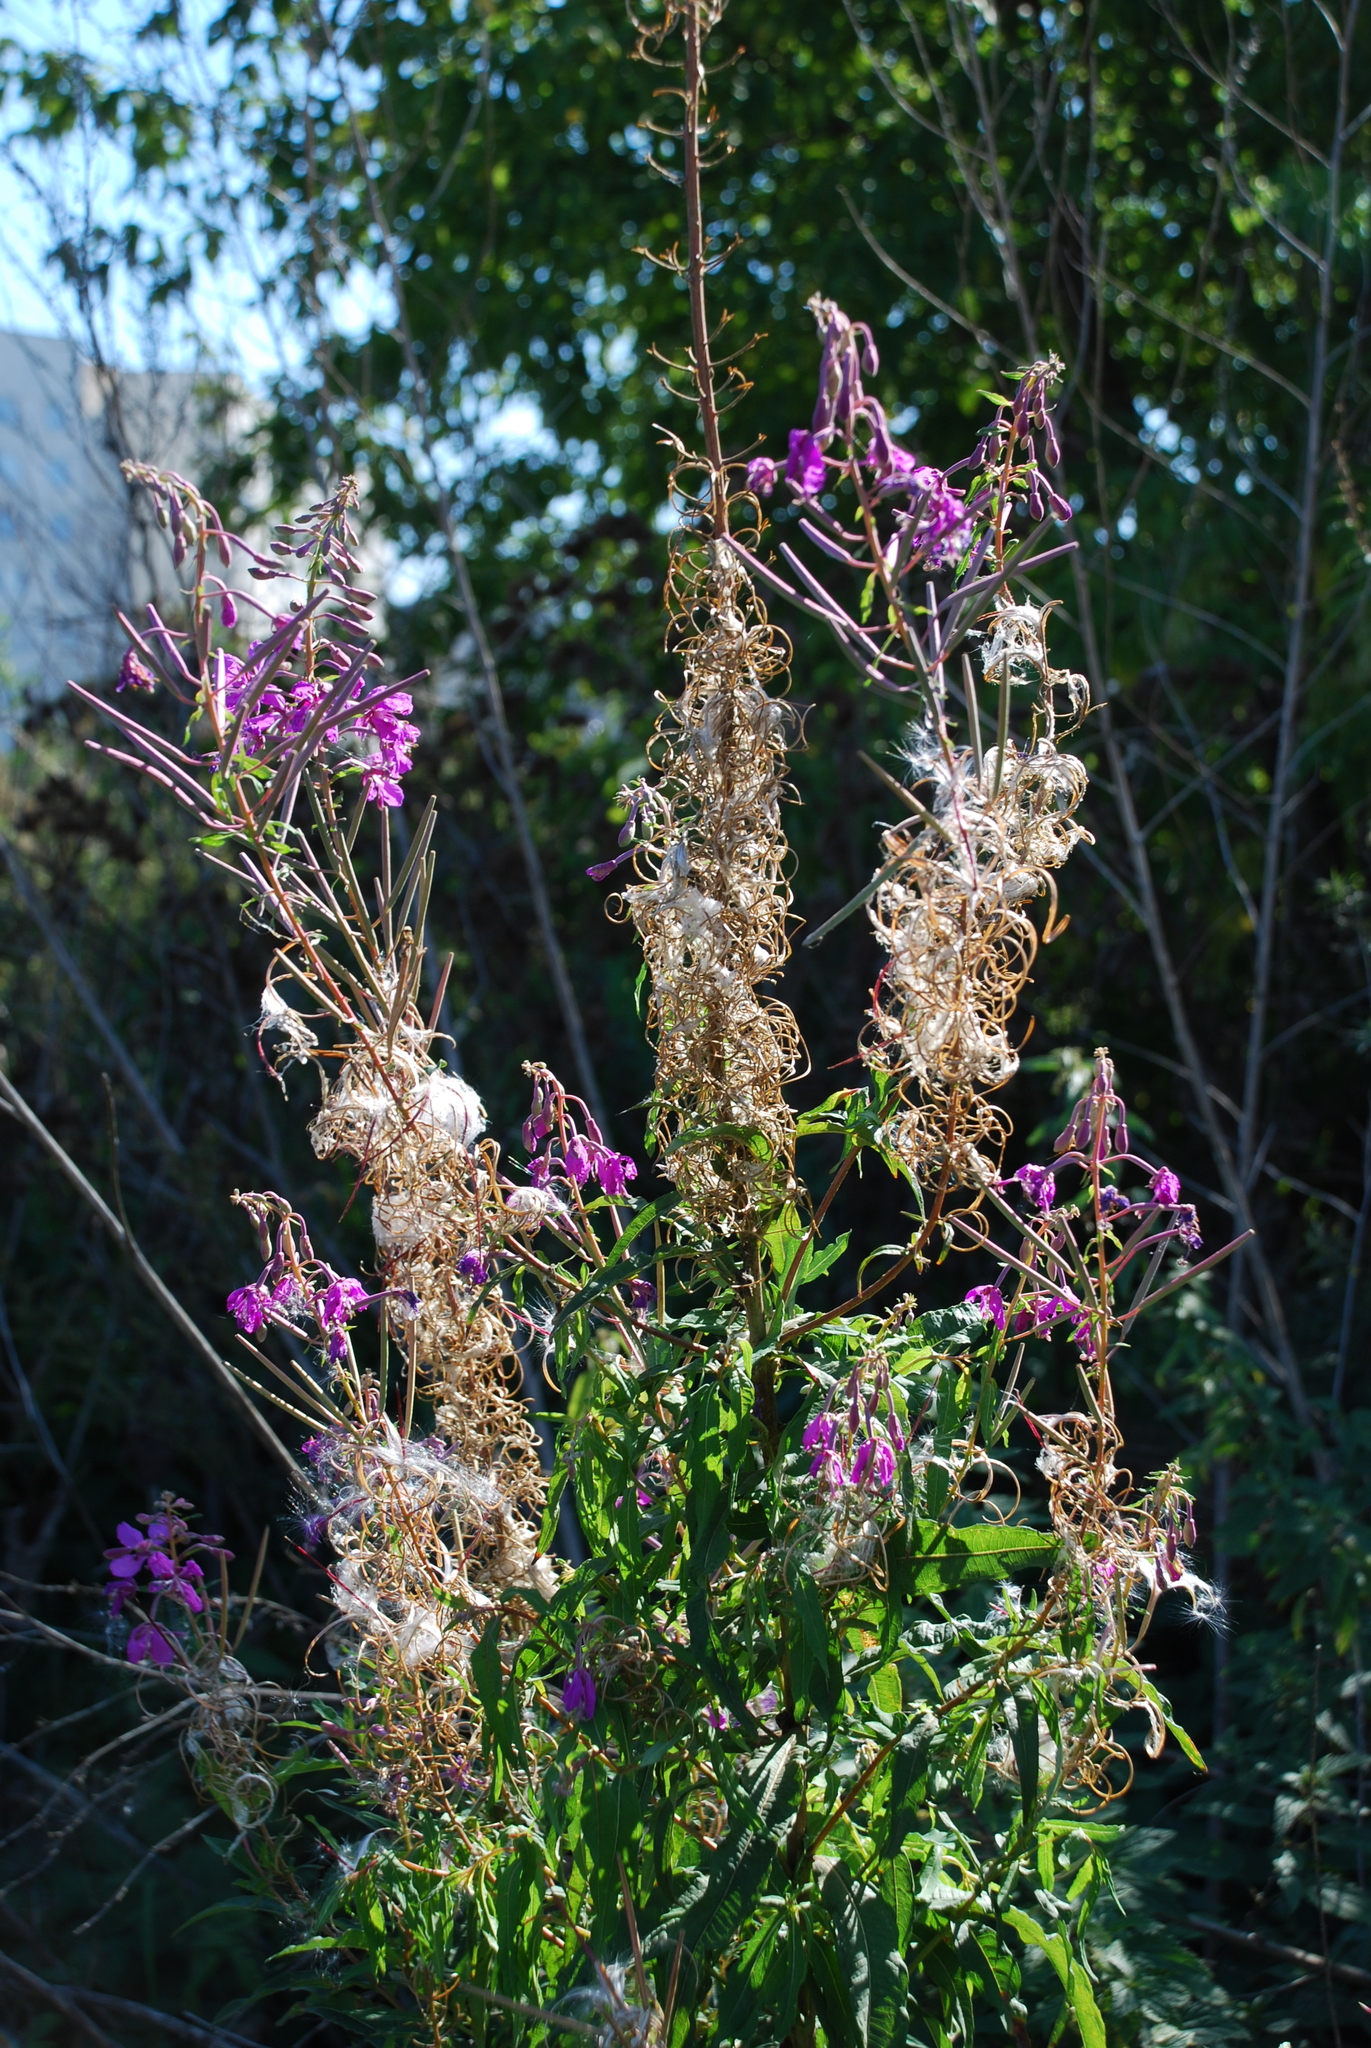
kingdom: Plantae
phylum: Tracheophyta
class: Magnoliopsida
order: Myrtales
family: Onagraceae
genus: Chamaenerion
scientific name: Chamaenerion angustifolium
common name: Fireweed
